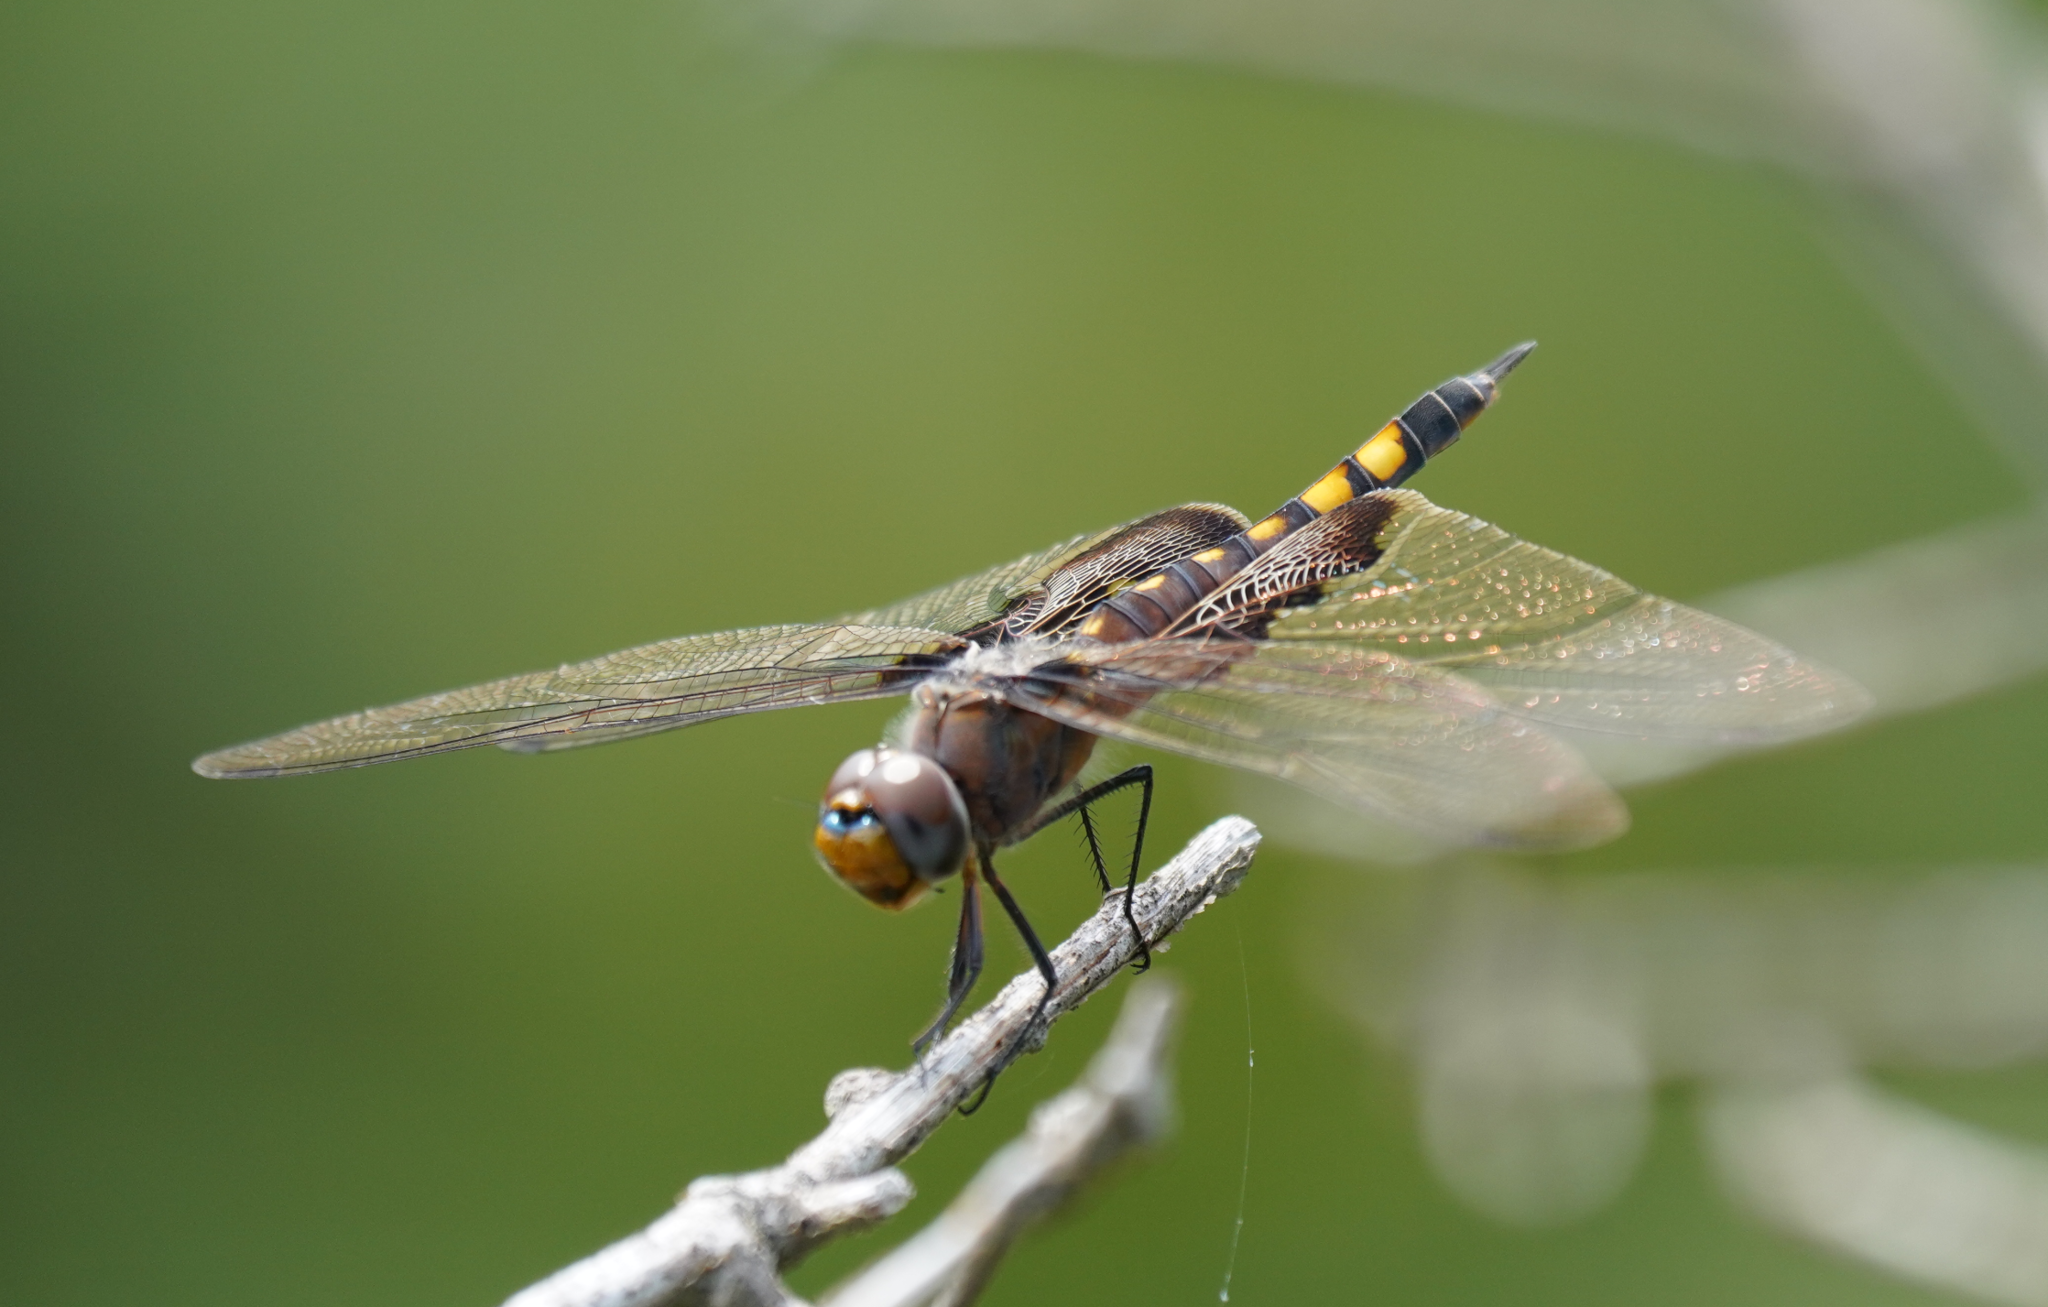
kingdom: Animalia
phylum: Arthropoda
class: Insecta
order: Odonata
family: Libellulidae
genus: Tramea
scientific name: Tramea lacerata
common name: Black saddlebags
